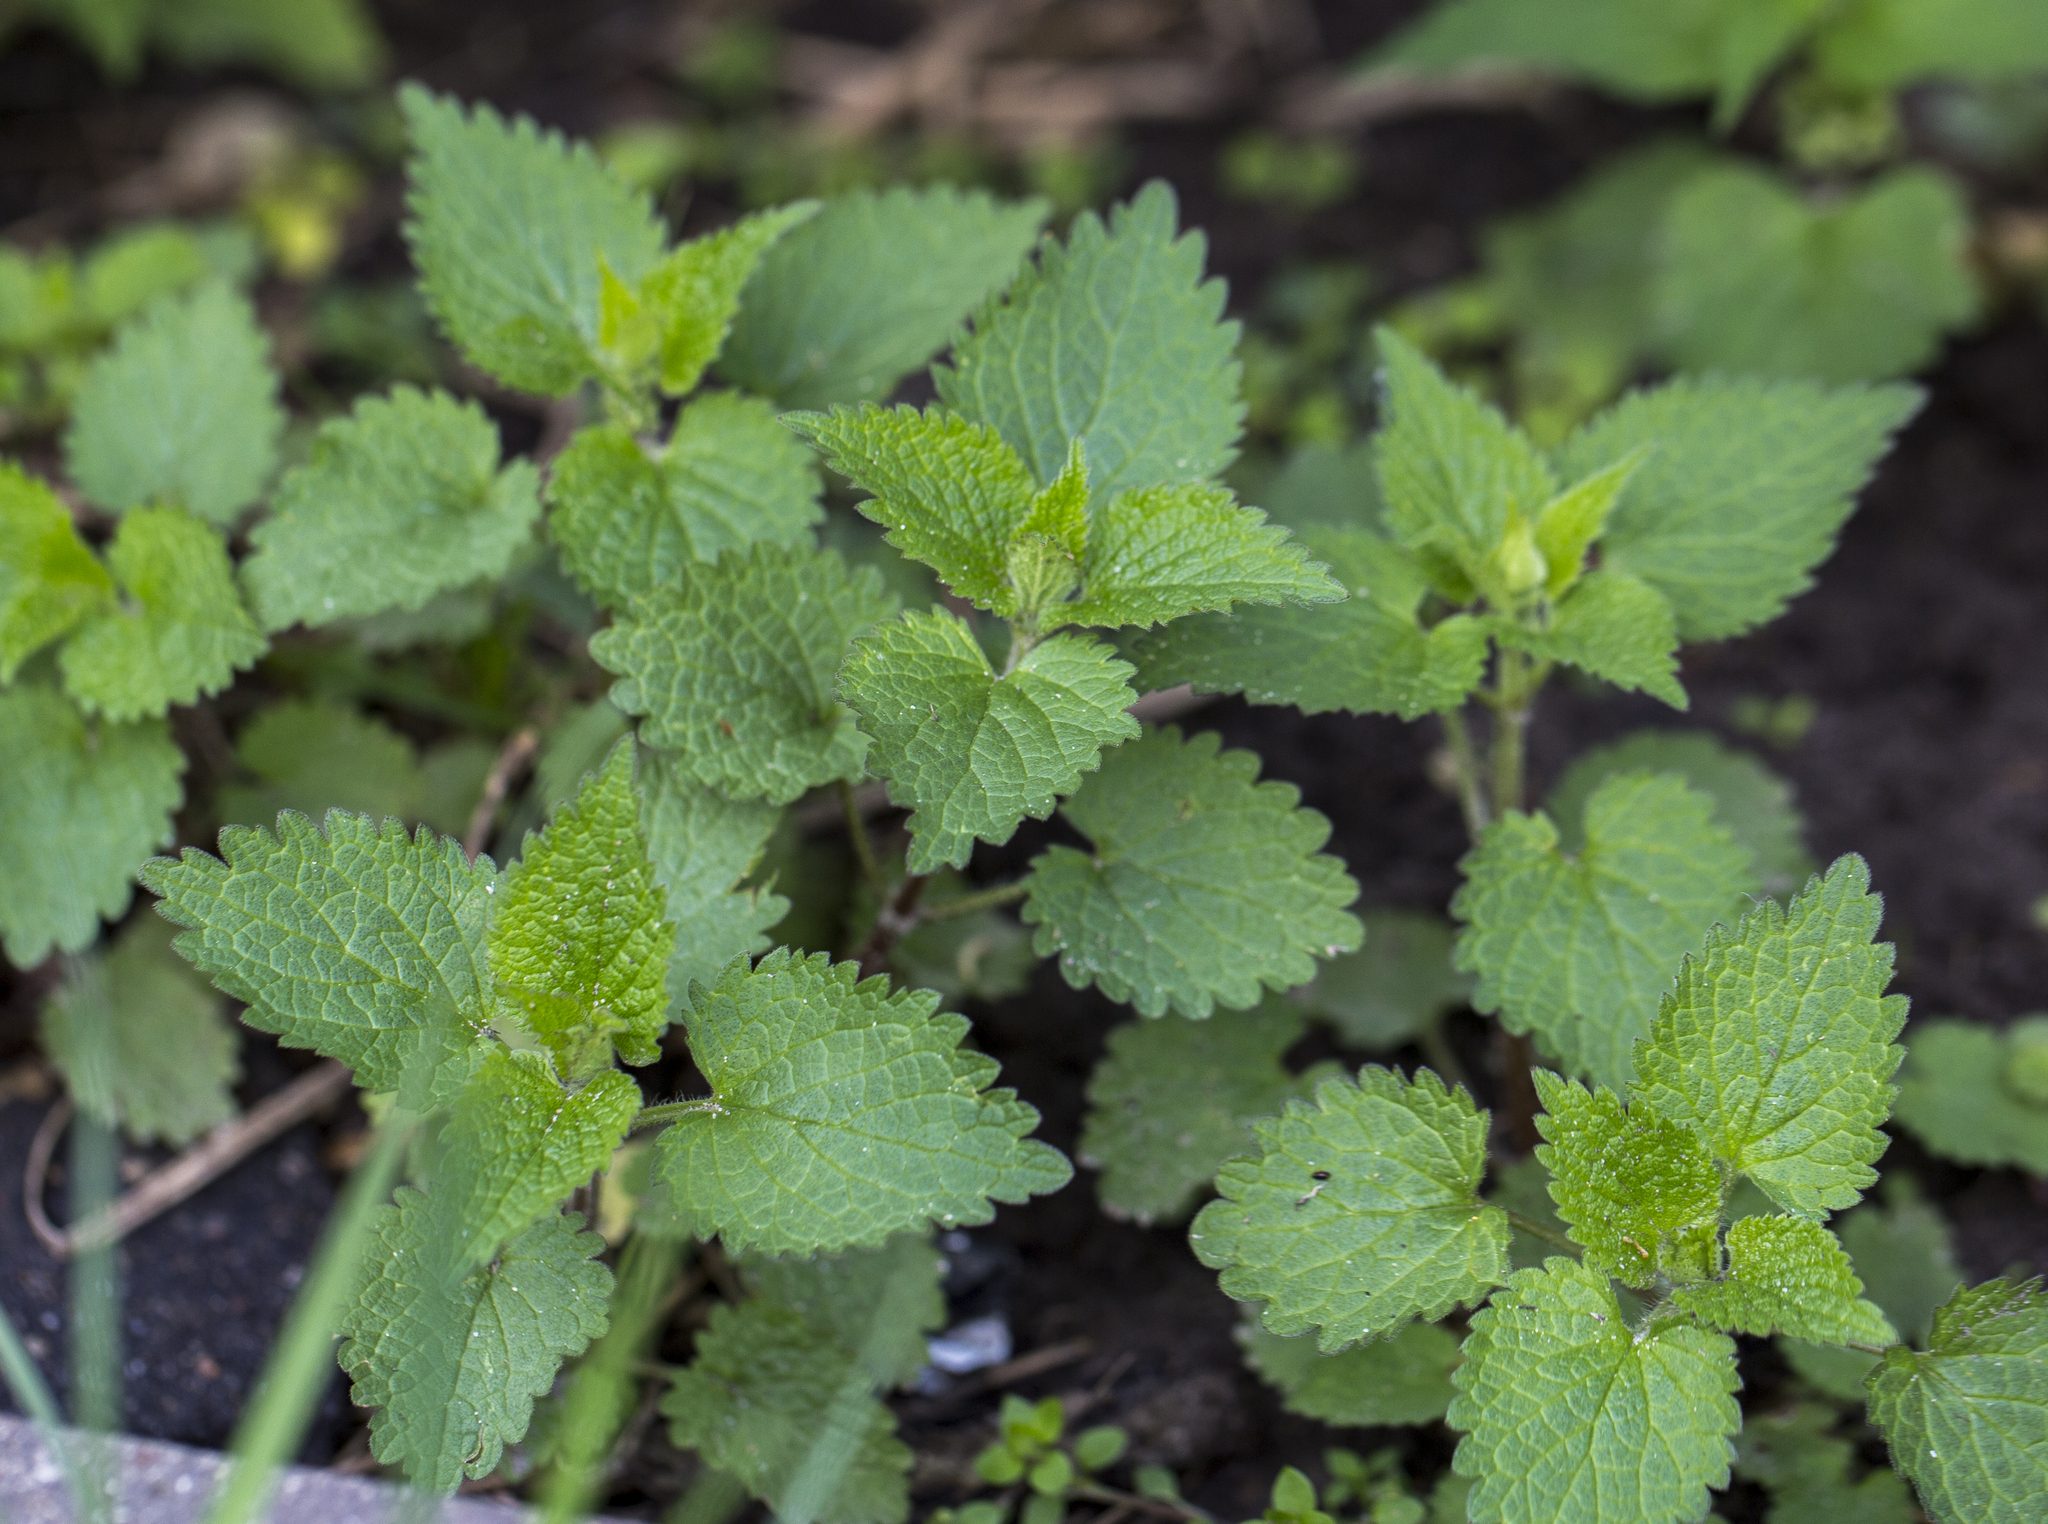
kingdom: Plantae
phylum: Tracheophyta
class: Magnoliopsida
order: Lamiales
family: Lamiaceae
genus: Lamium
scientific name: Lamium album
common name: White dead-nettle
